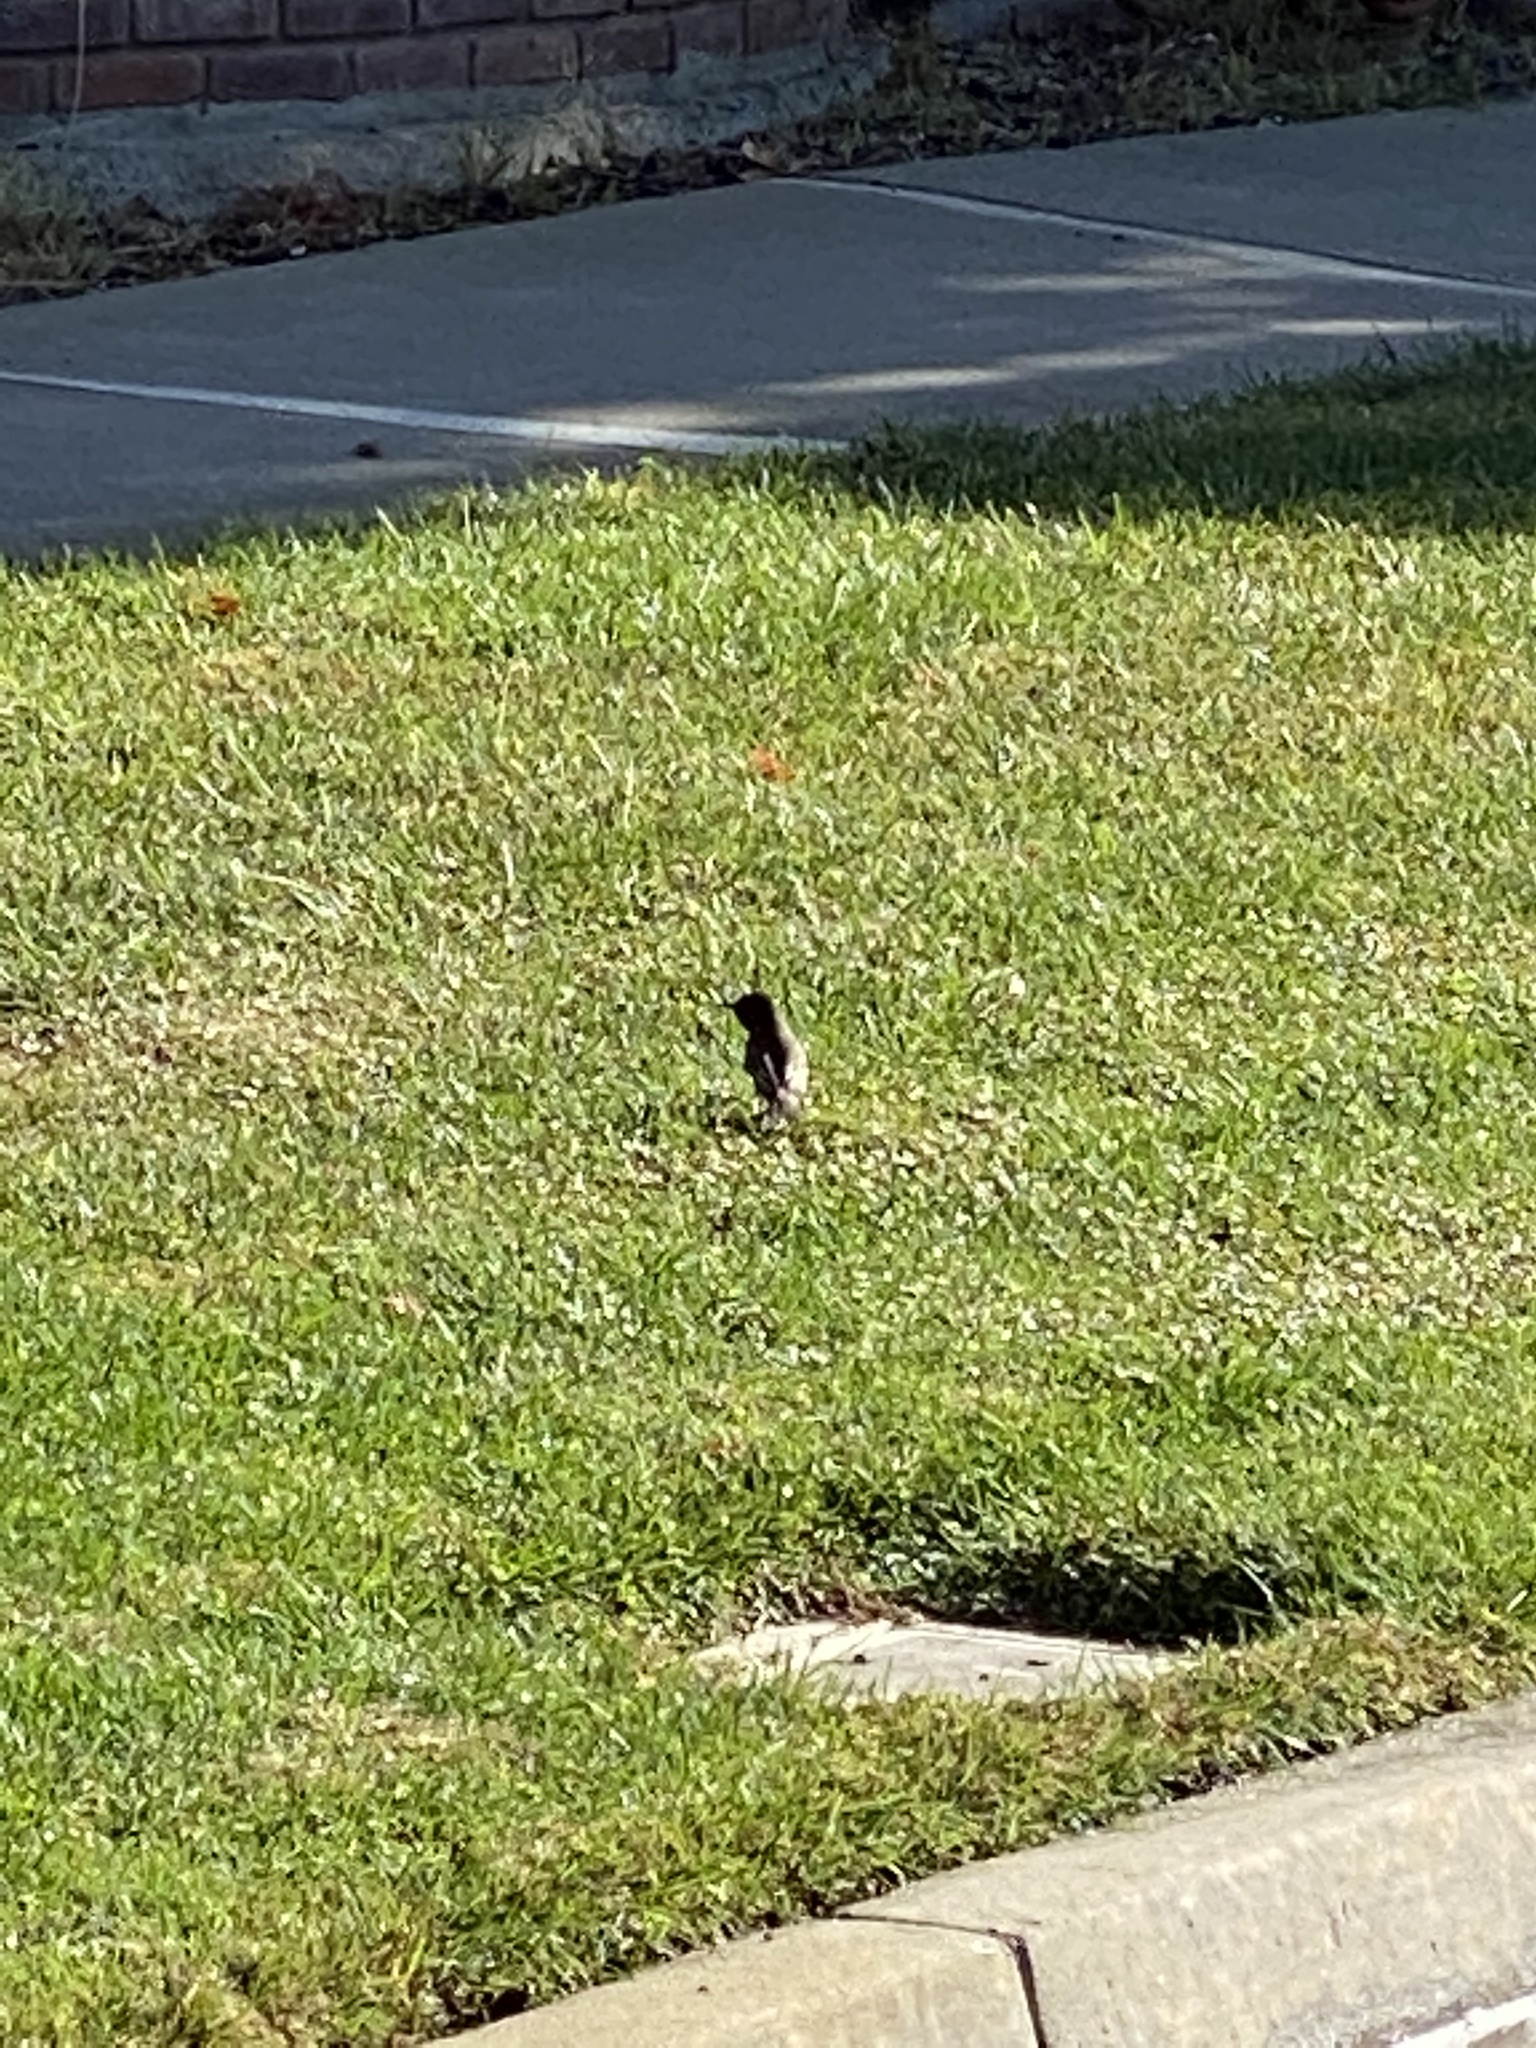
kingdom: Animalia
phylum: Chordata
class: Aves
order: Passeriformes
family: Tyrannidae
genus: Sayornis
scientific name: Sayornis nigricans
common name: Black phoebe
